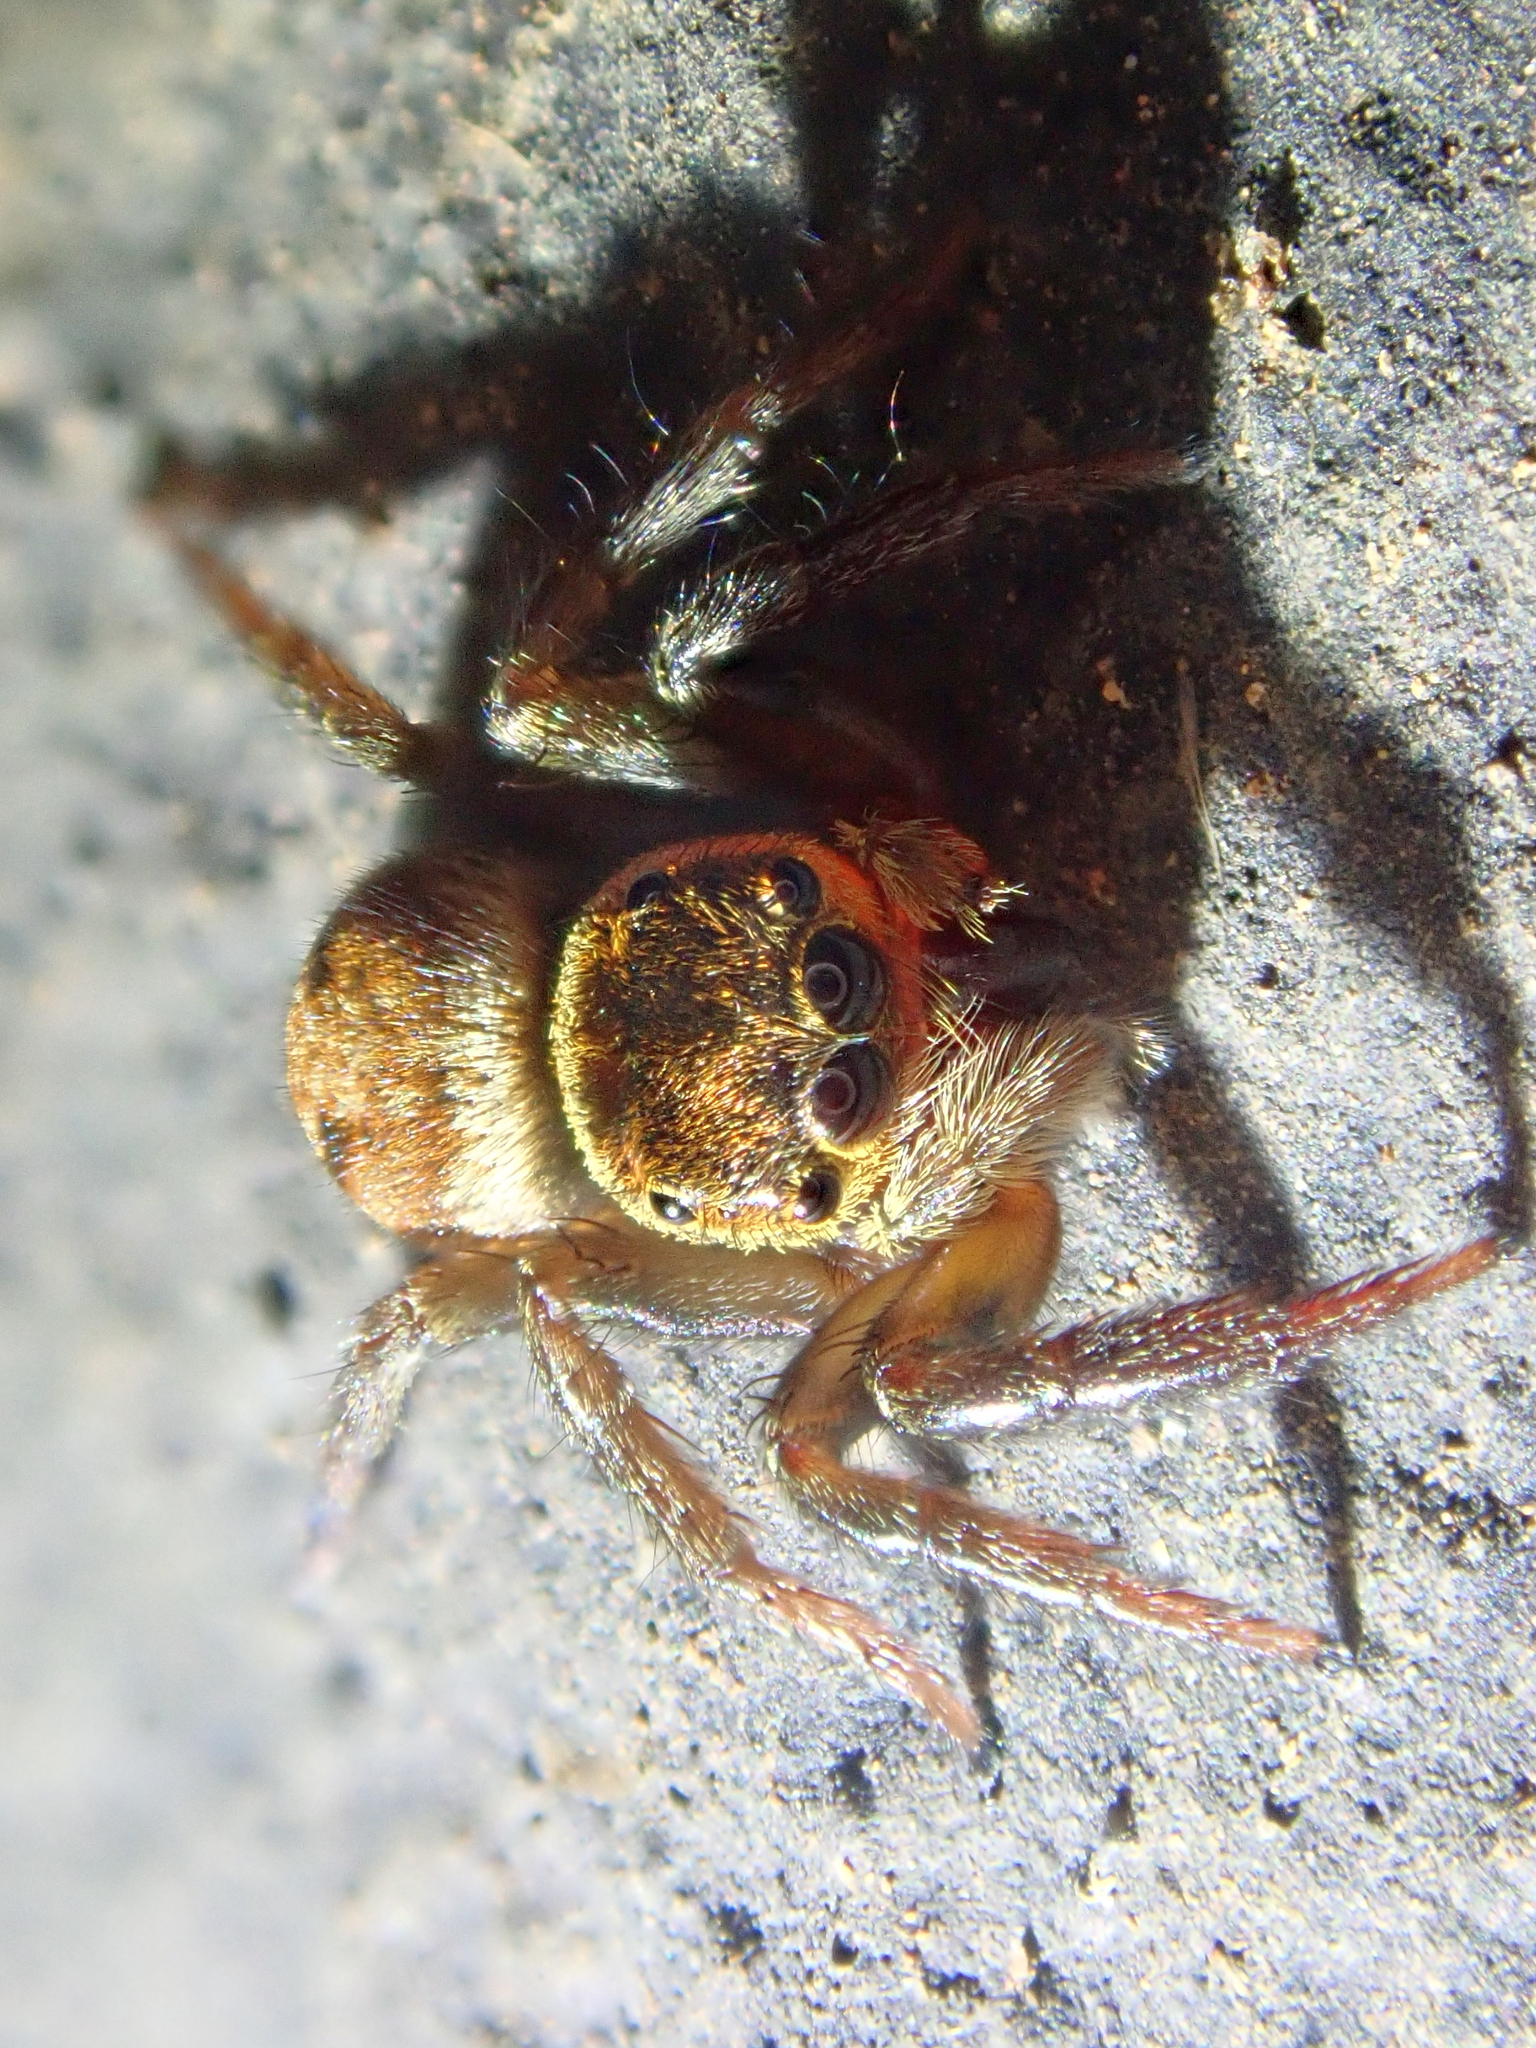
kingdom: Animalia
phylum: Arthropoda
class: Arachnida
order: Araneae
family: Salticidae
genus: Hasarius
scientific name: Hasarius adansoni
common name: Jumping spider
